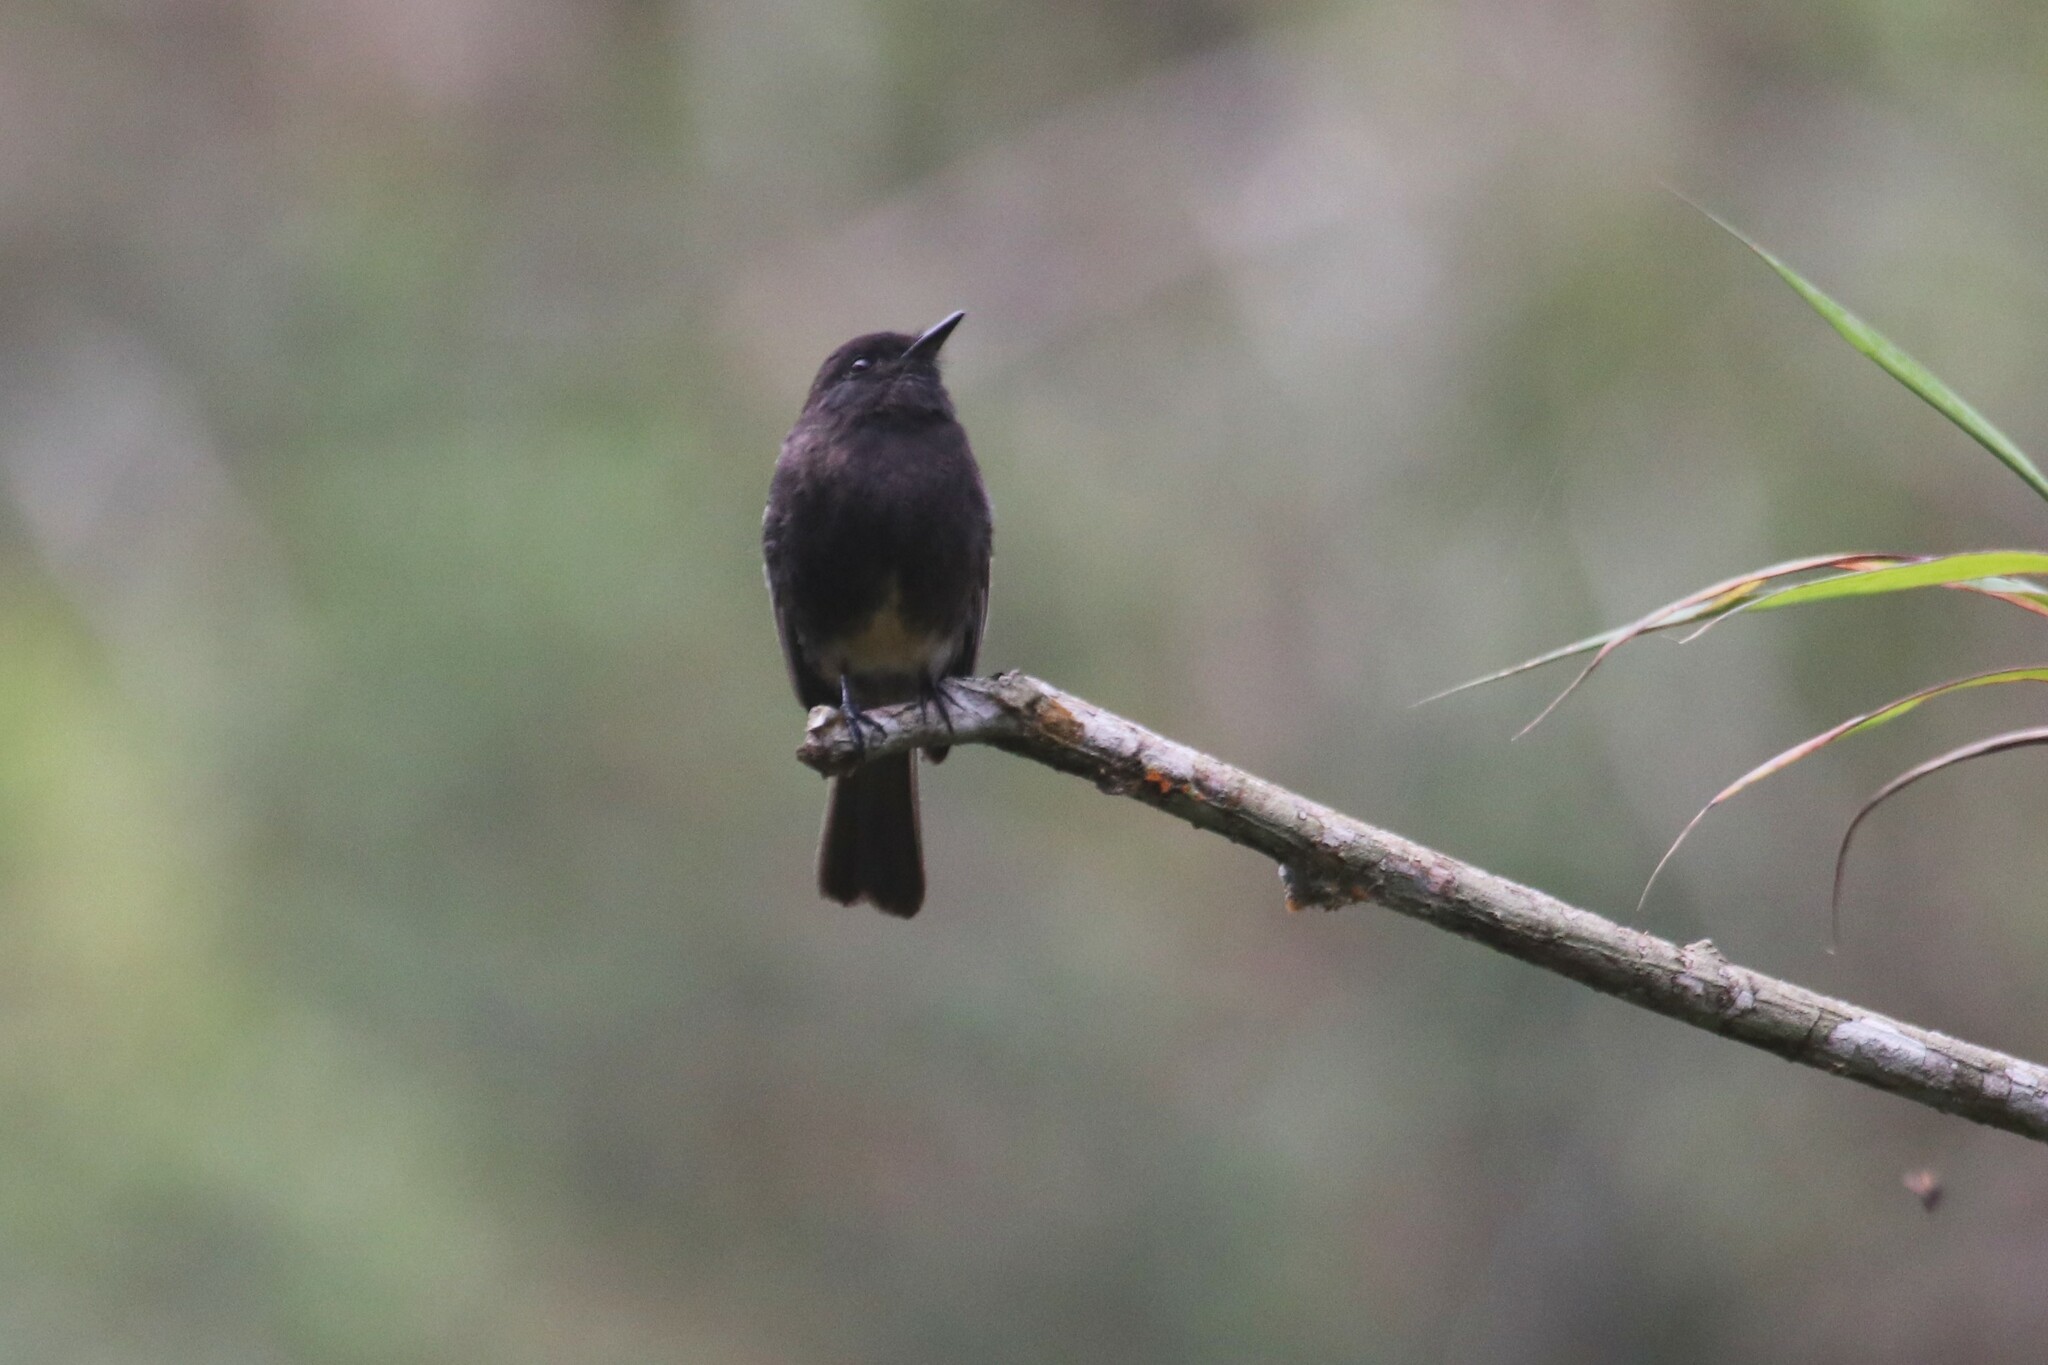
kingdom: Animalia
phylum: Chordata
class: Aves
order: Passeriformes
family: Tyrannidae
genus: Sayornis
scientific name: Sayornis nigricans
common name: Black phoebe
